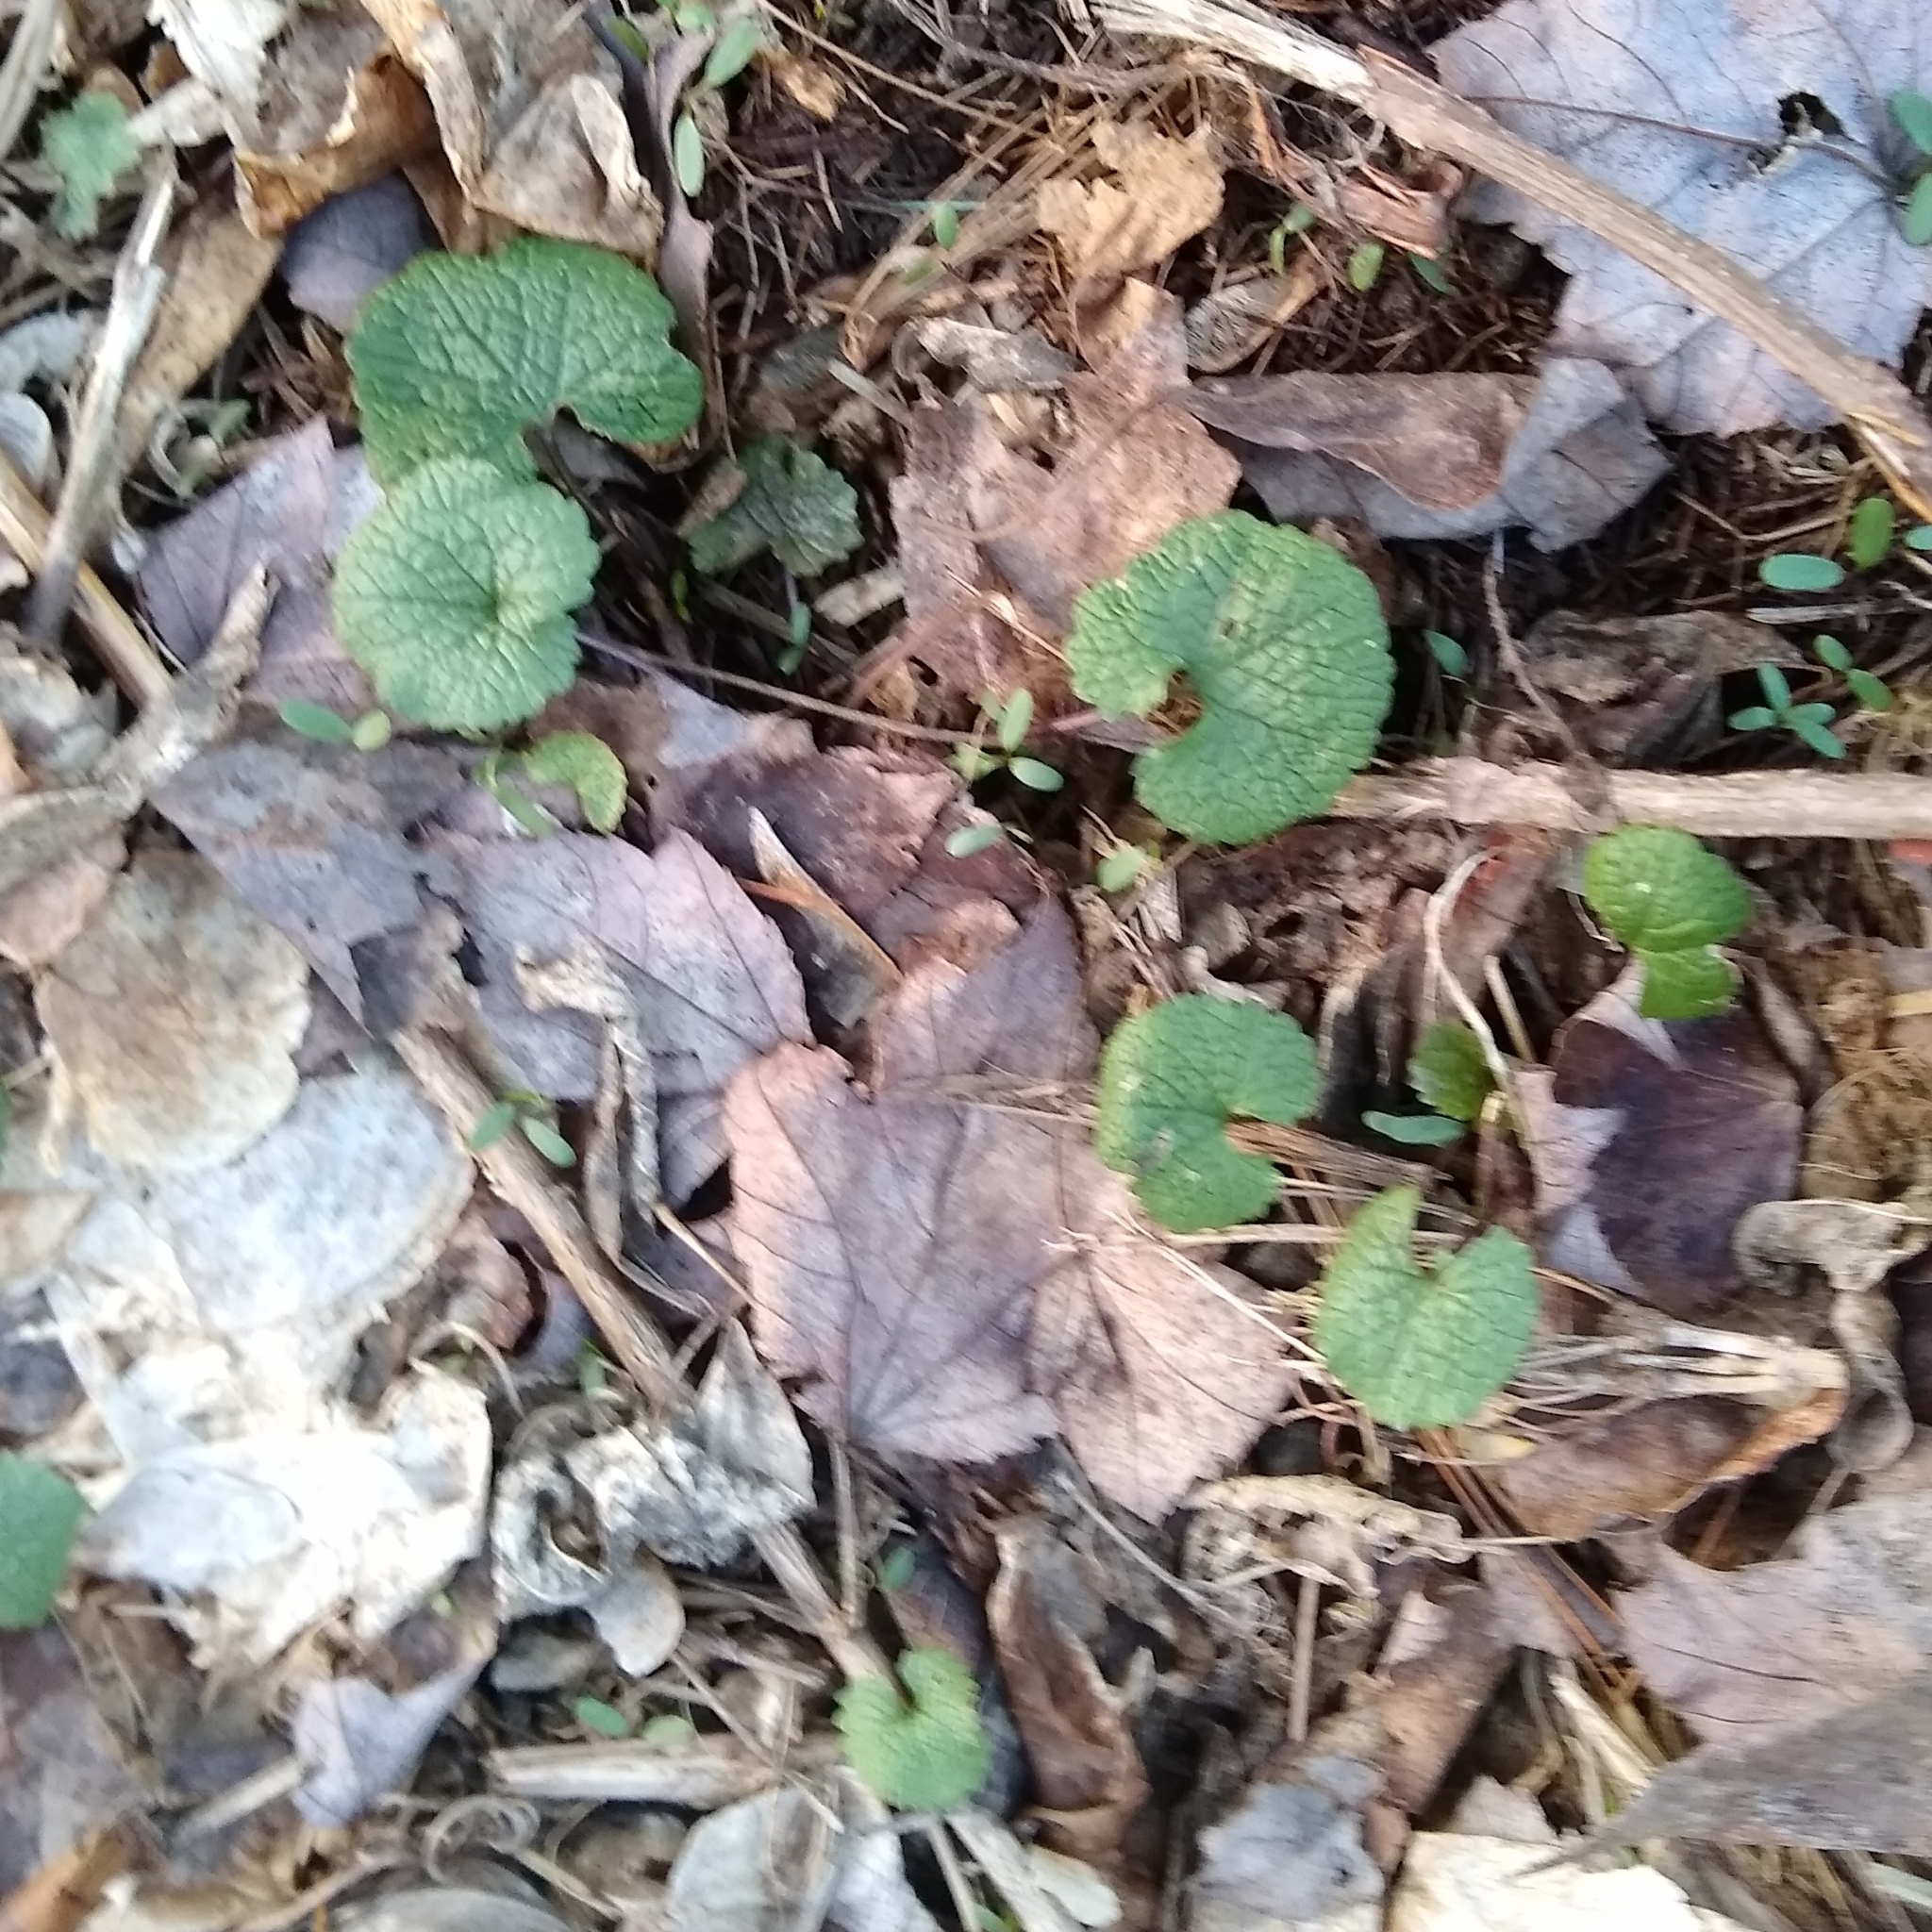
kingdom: Plantae
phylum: Tracheophyta
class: Magnoliopsida
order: Brassicales
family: Brassicaceae
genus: Alliaria
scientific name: Alliaria petiolata
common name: Garlic mustard
